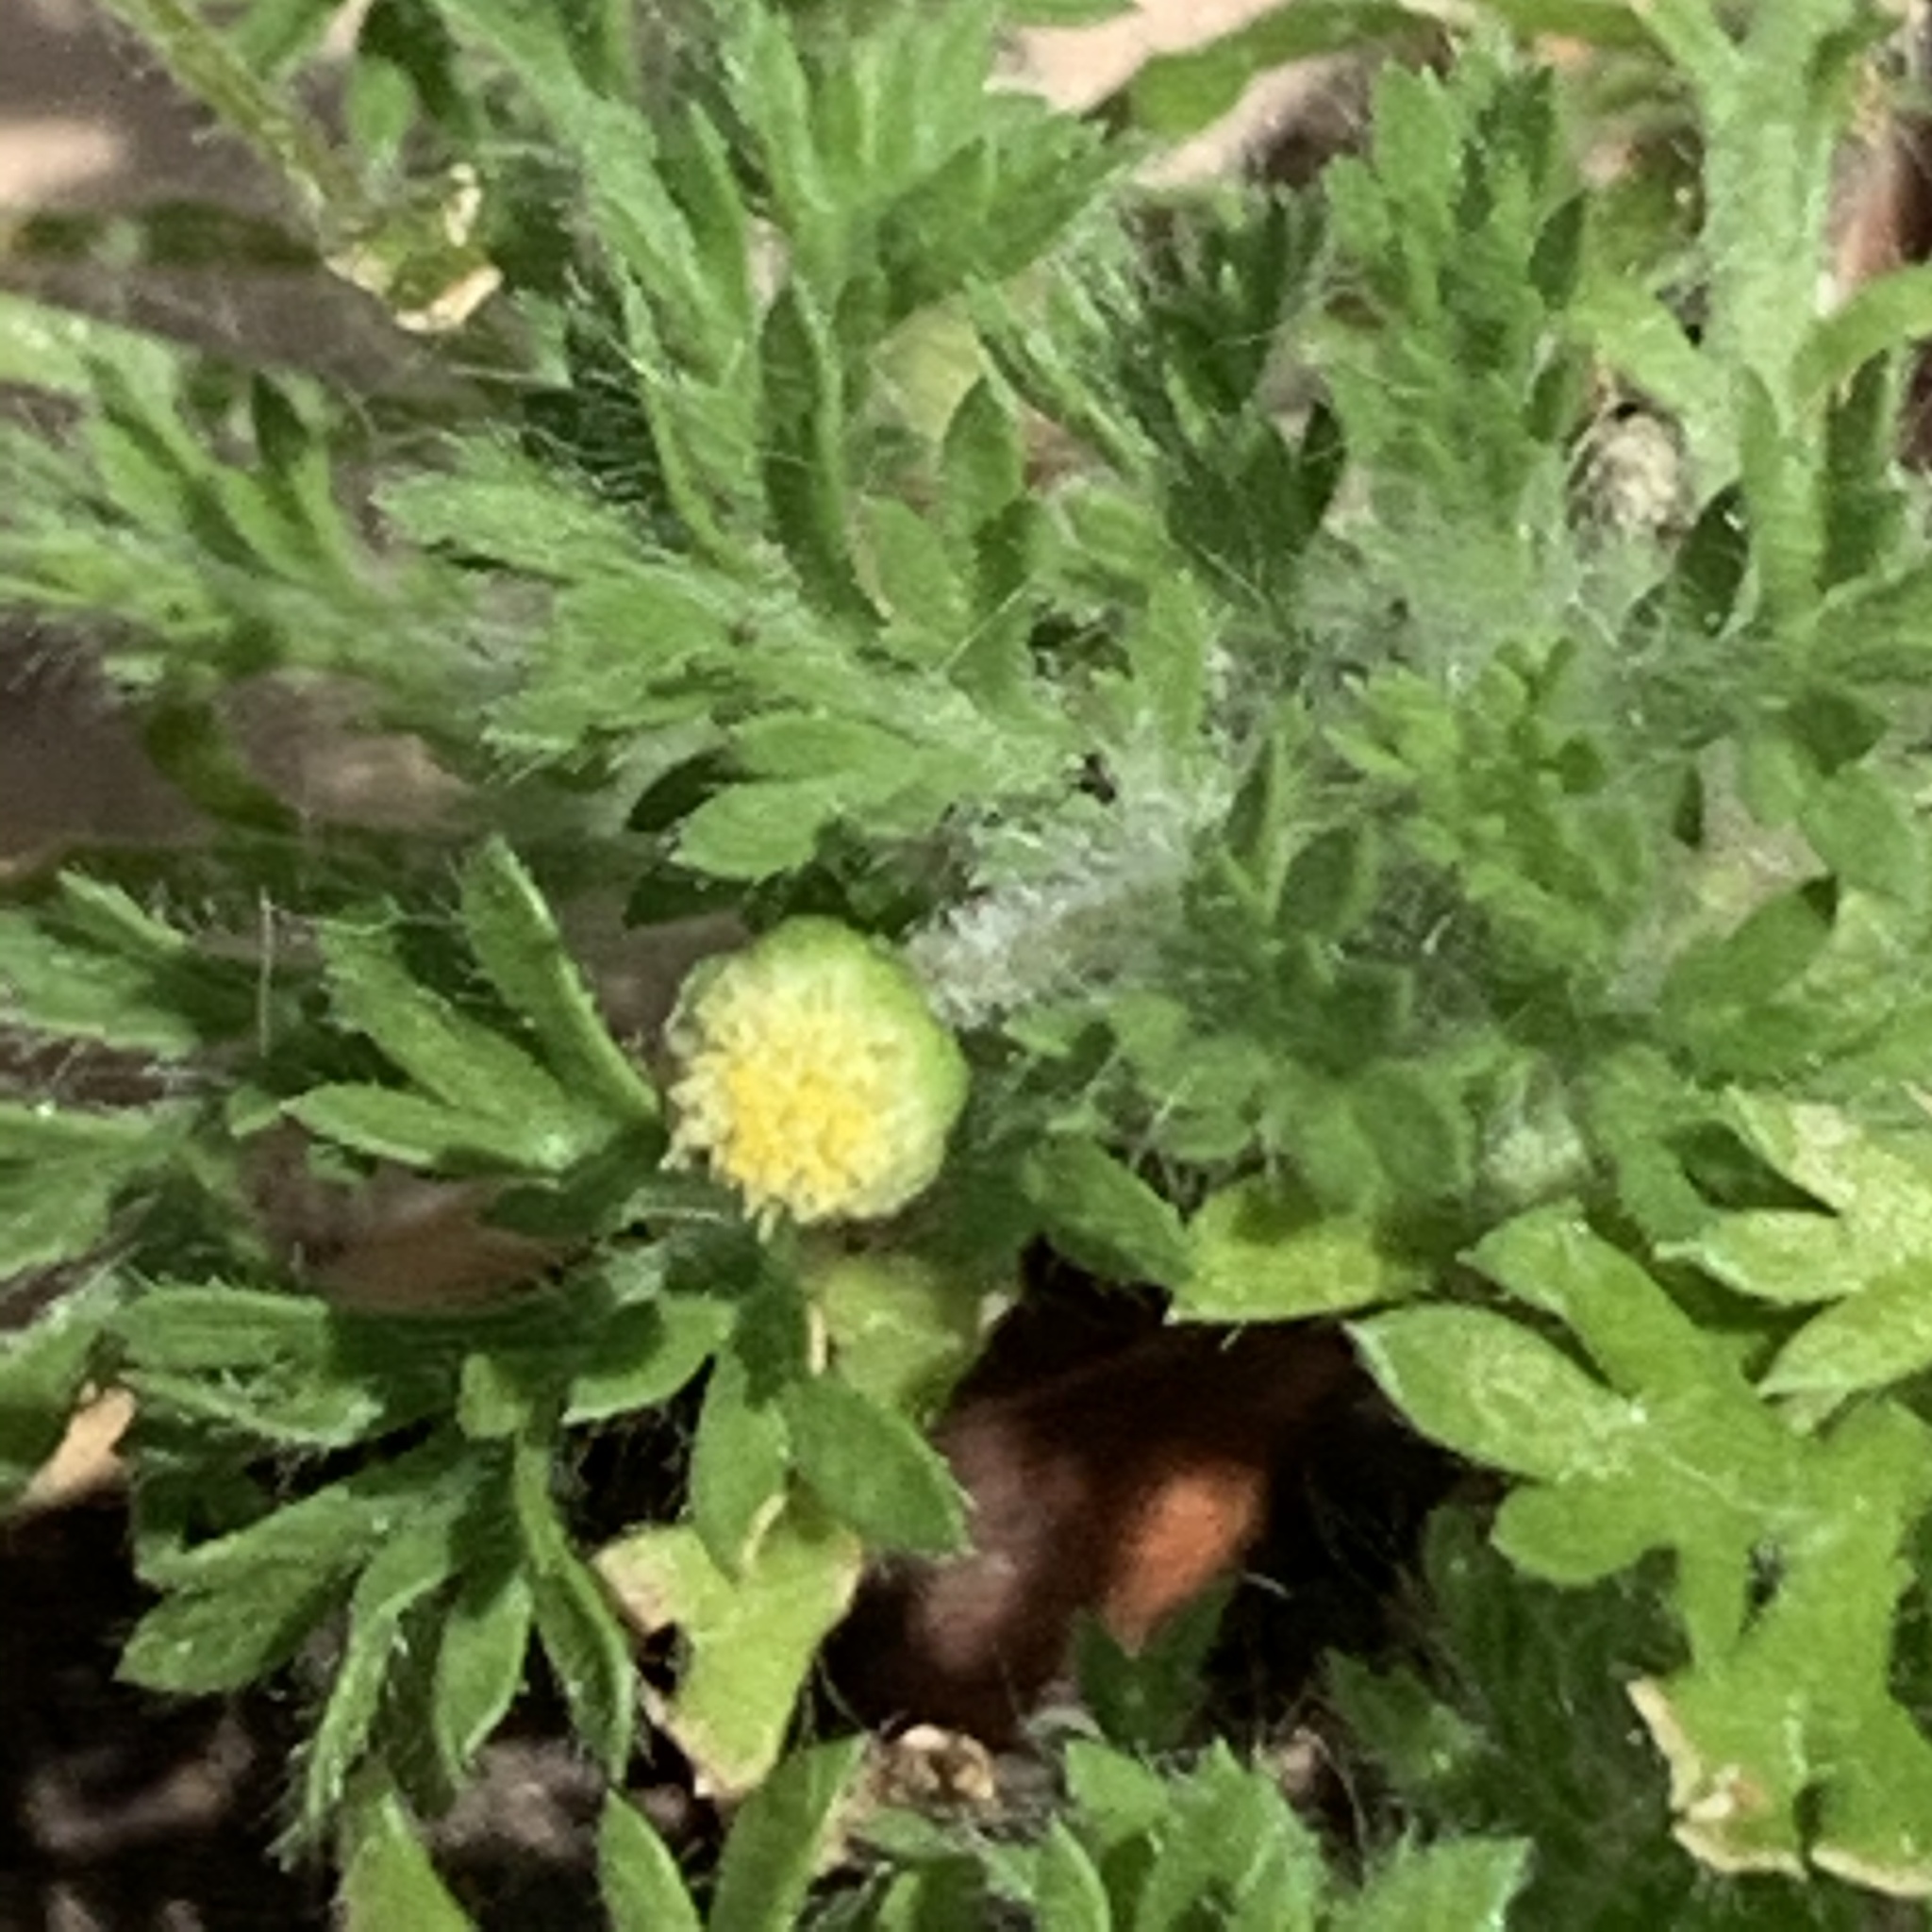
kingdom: Plantae
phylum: Tracheophyta
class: Magnoliopsida
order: Asterales
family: Asteraceae
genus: Cotula
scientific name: Cotula australis
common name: Australian waterbuttons
